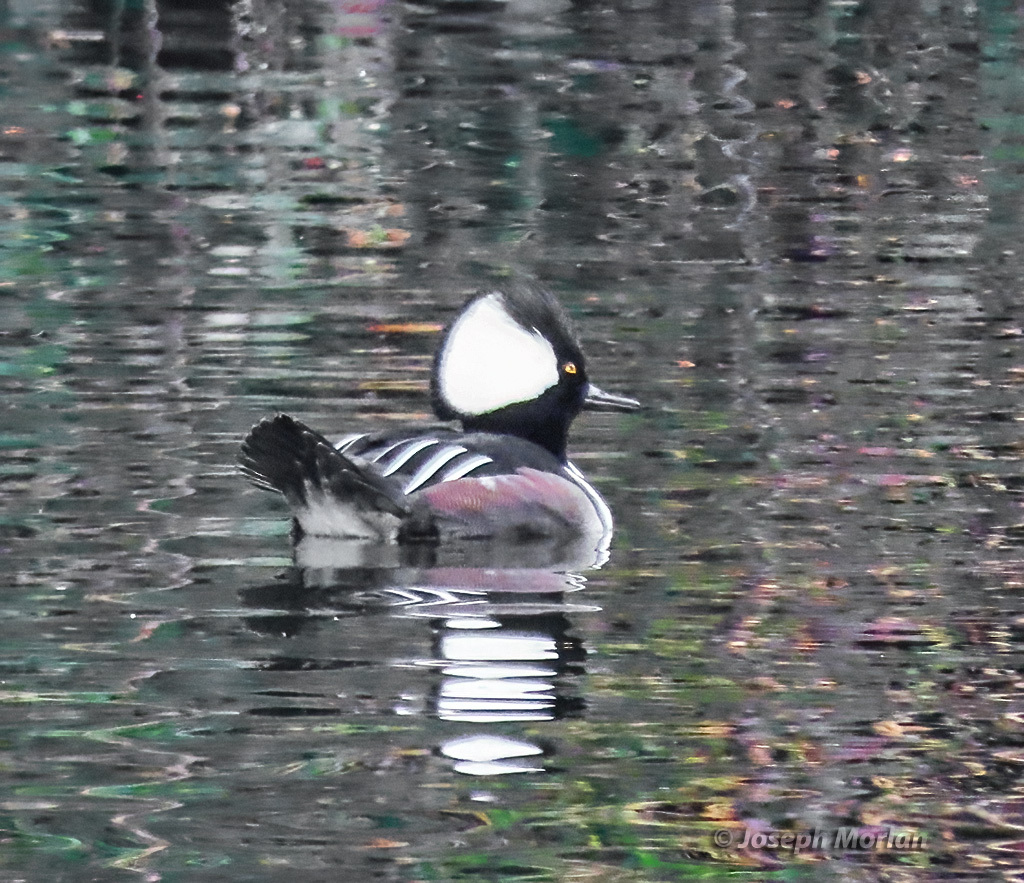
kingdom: Animalia
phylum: Chordata
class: Aves
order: Anseriformes
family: Anatidae
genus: Lophodytes
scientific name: Lophodytes cucullatus
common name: Hooded merganser
